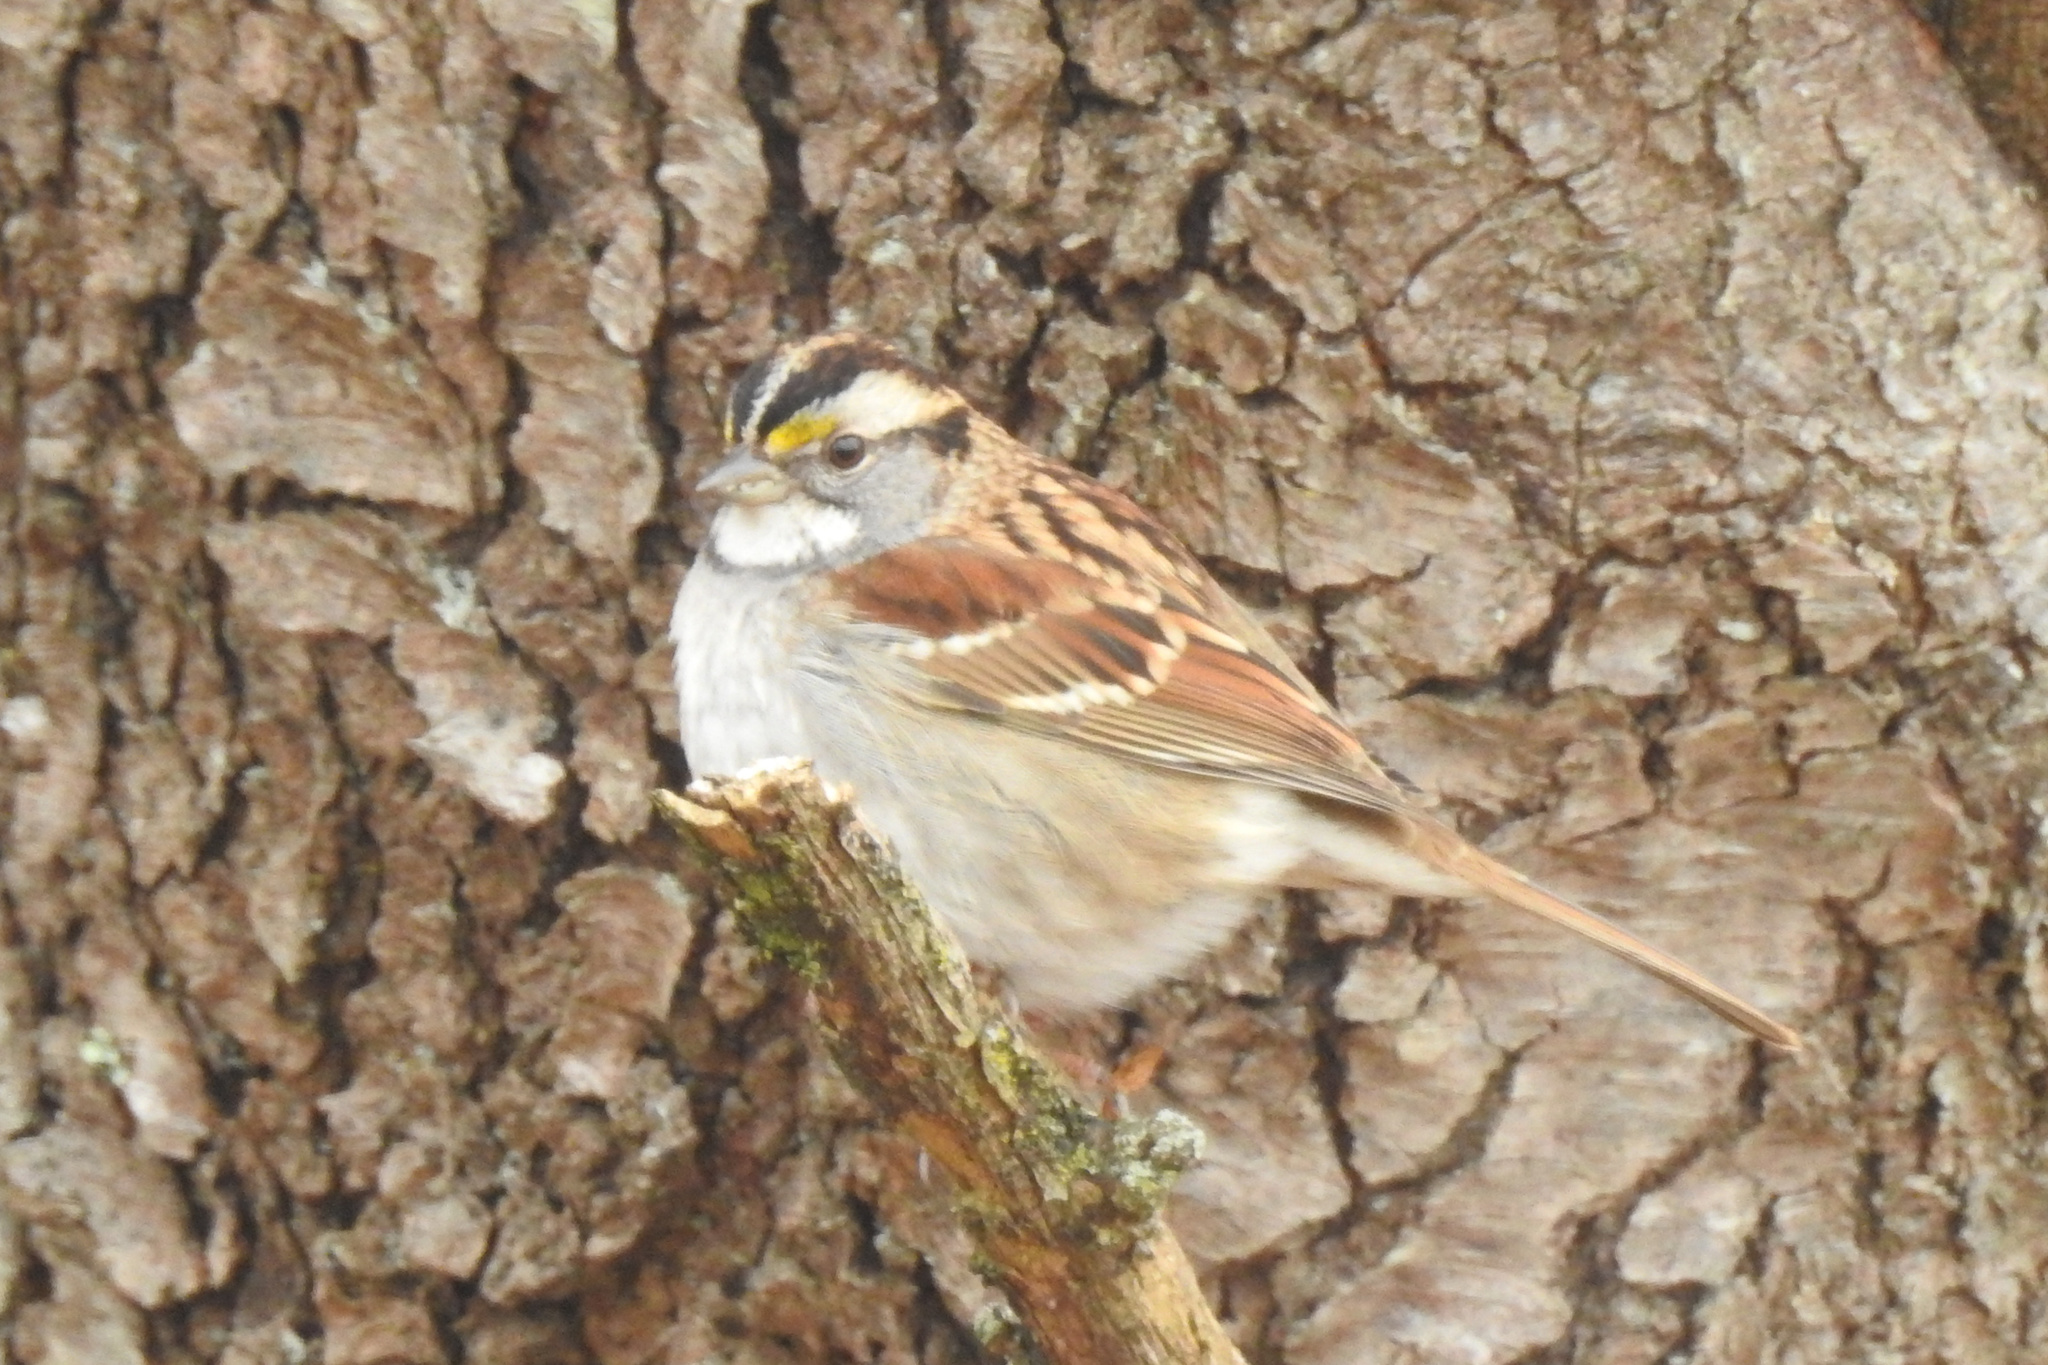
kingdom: Animalia
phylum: Chordata
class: Aves
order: Passeriformes
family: Passerellidae
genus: Zonotrichia
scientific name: Zonotrichia albicollis
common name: White-throated sparrow
